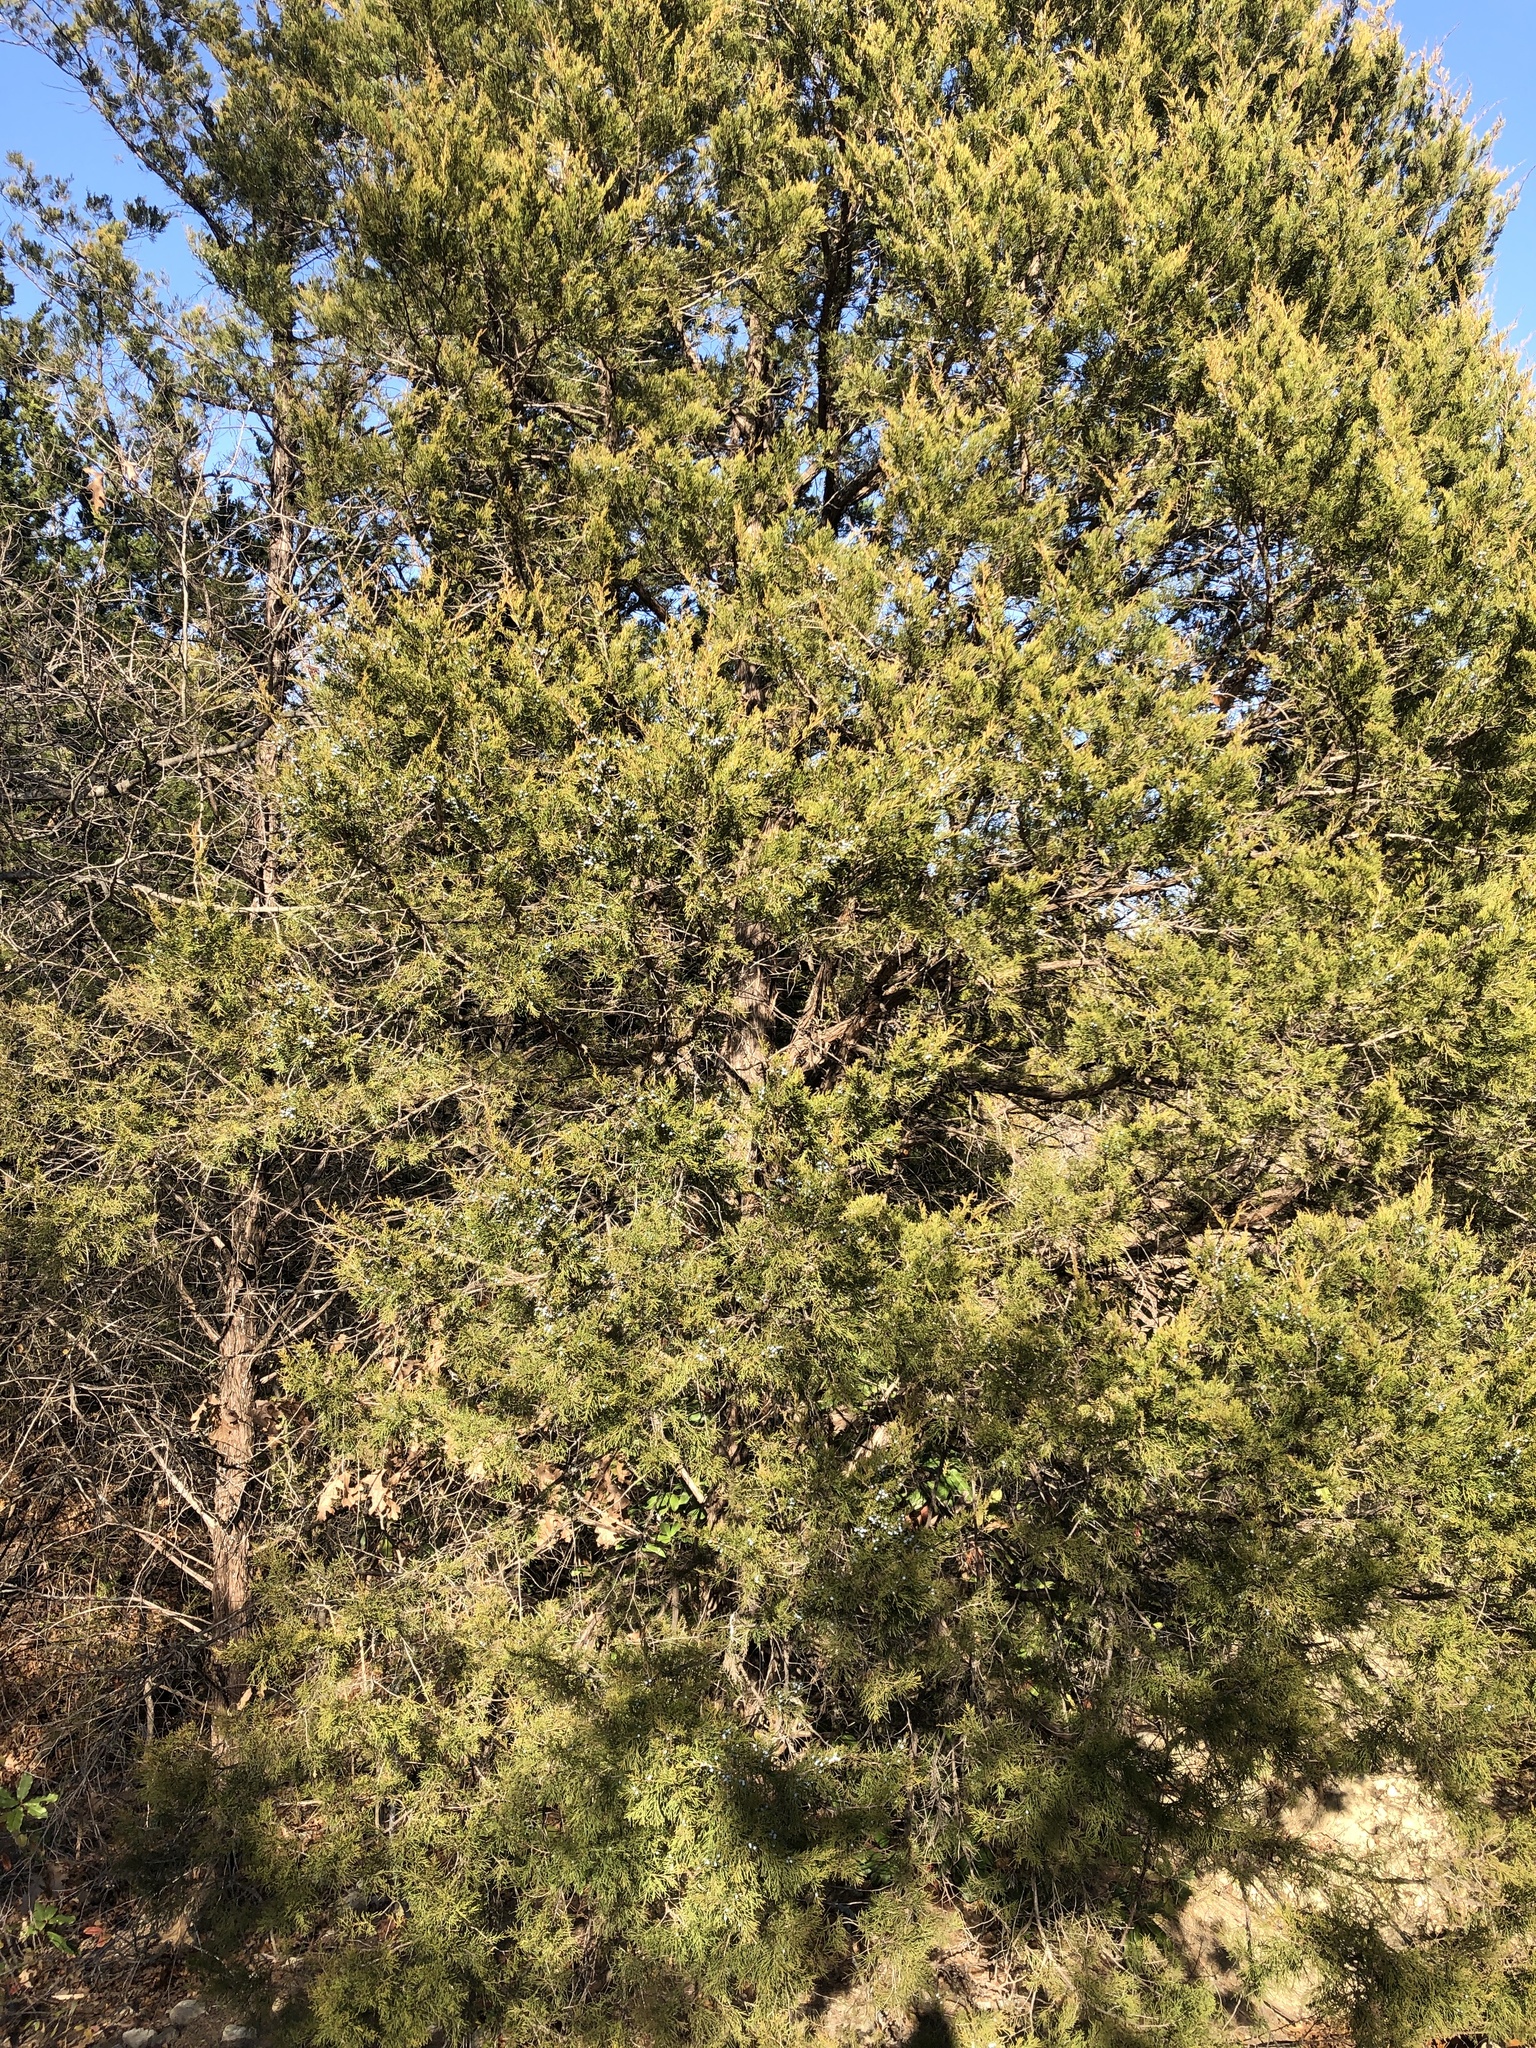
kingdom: Plantae
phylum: Tracheophyta
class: Pinopsida
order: Pinales
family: Cupressaceae
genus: Juniperus
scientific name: Juniperus virginiana
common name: Red juniper
